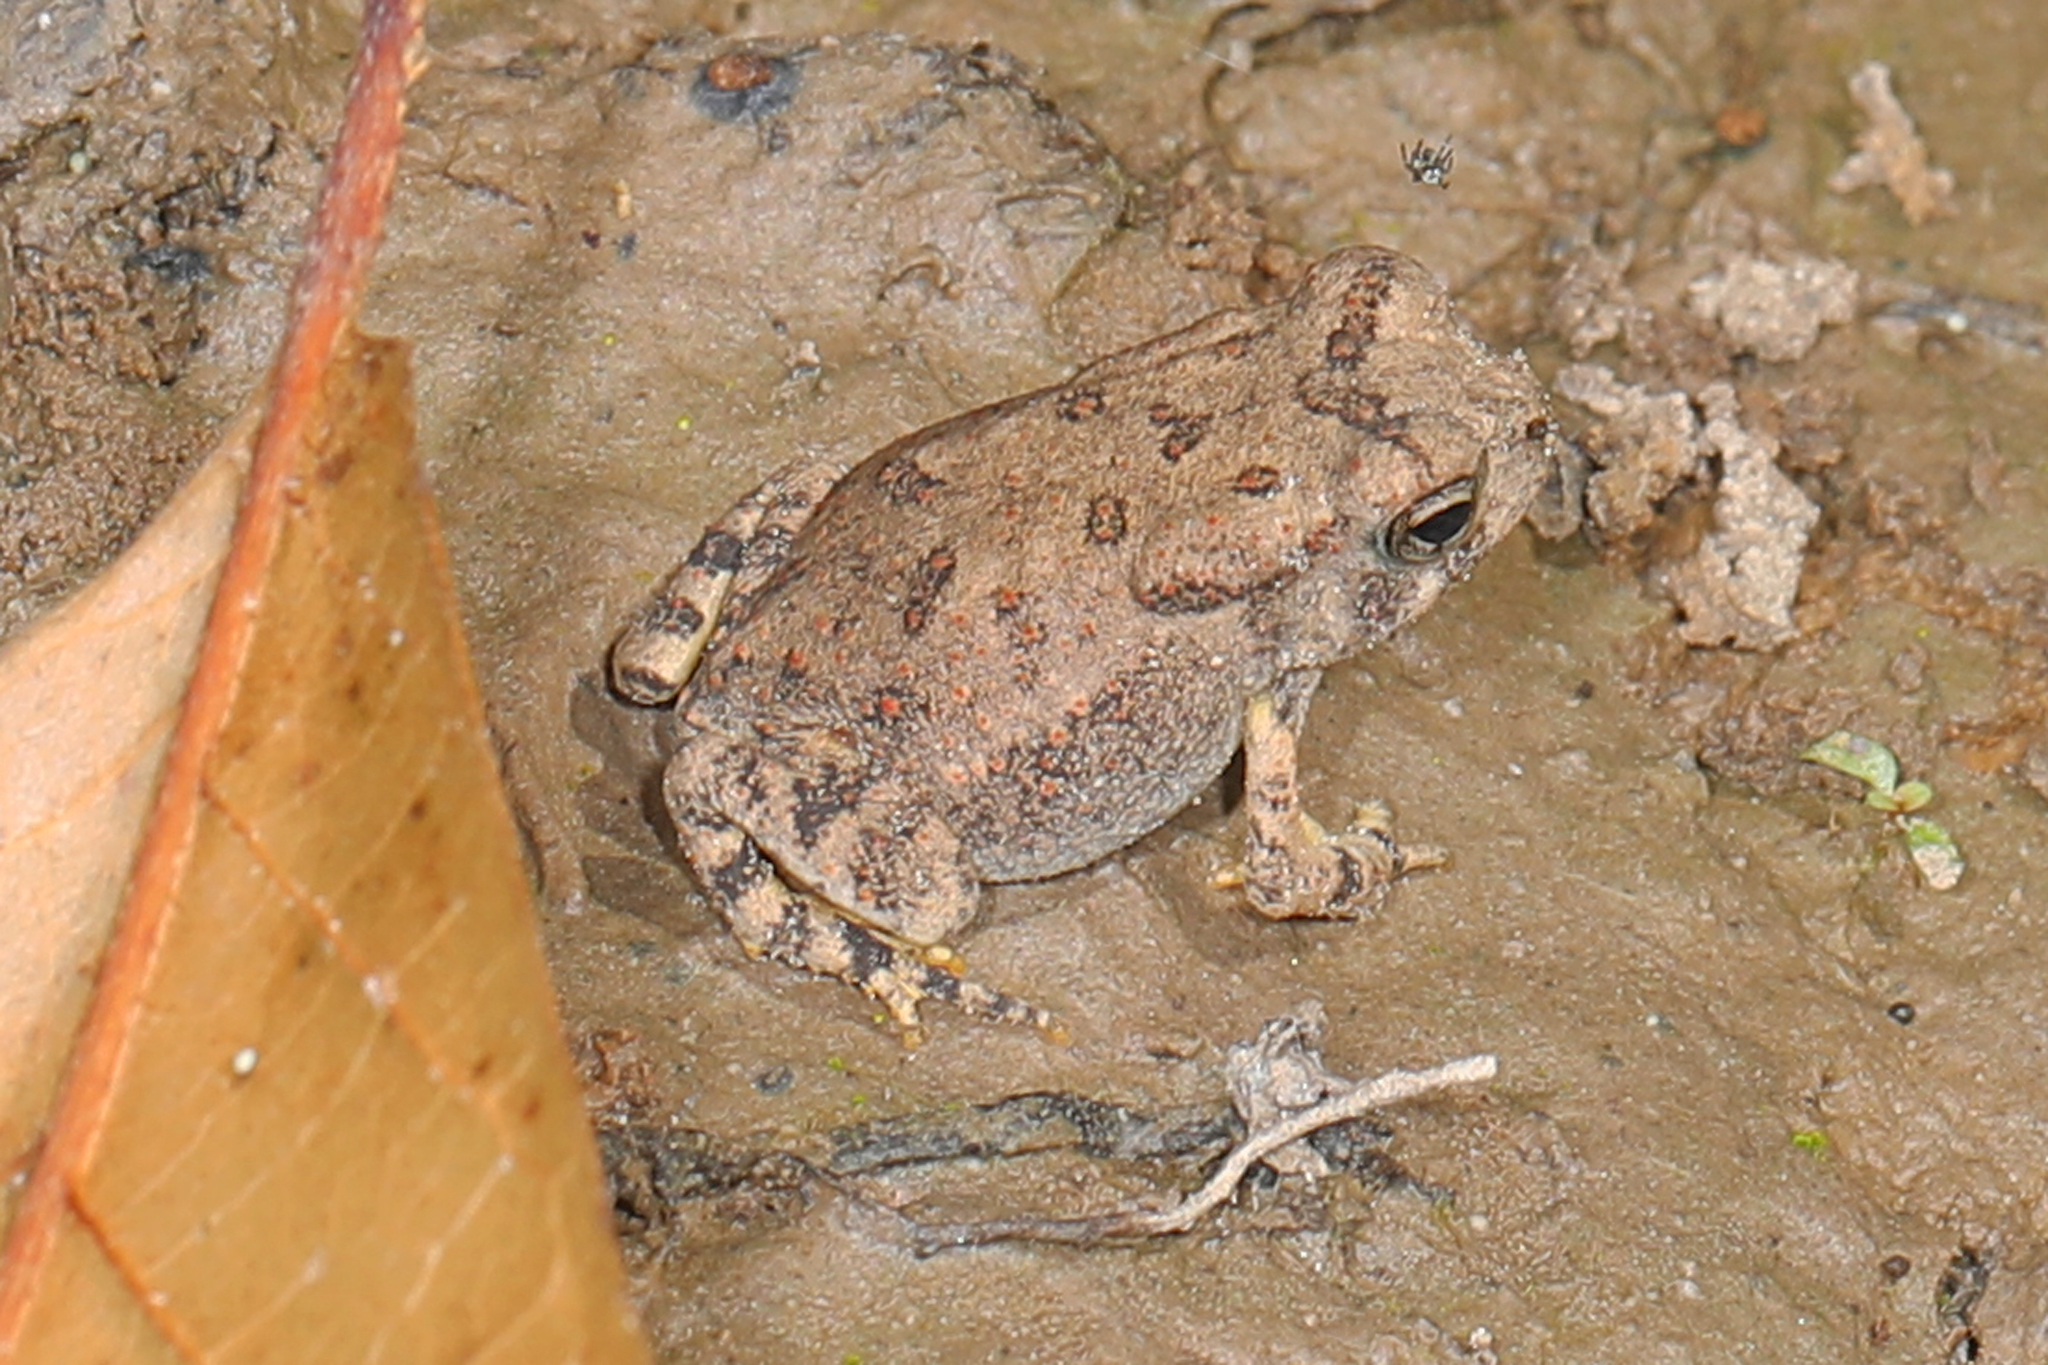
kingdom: Animalia
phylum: Chordata
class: Amphibia
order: Anura
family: Bufonidae
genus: Anaxyrus
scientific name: Anaxyrus fowleri
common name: Fowler's toad
